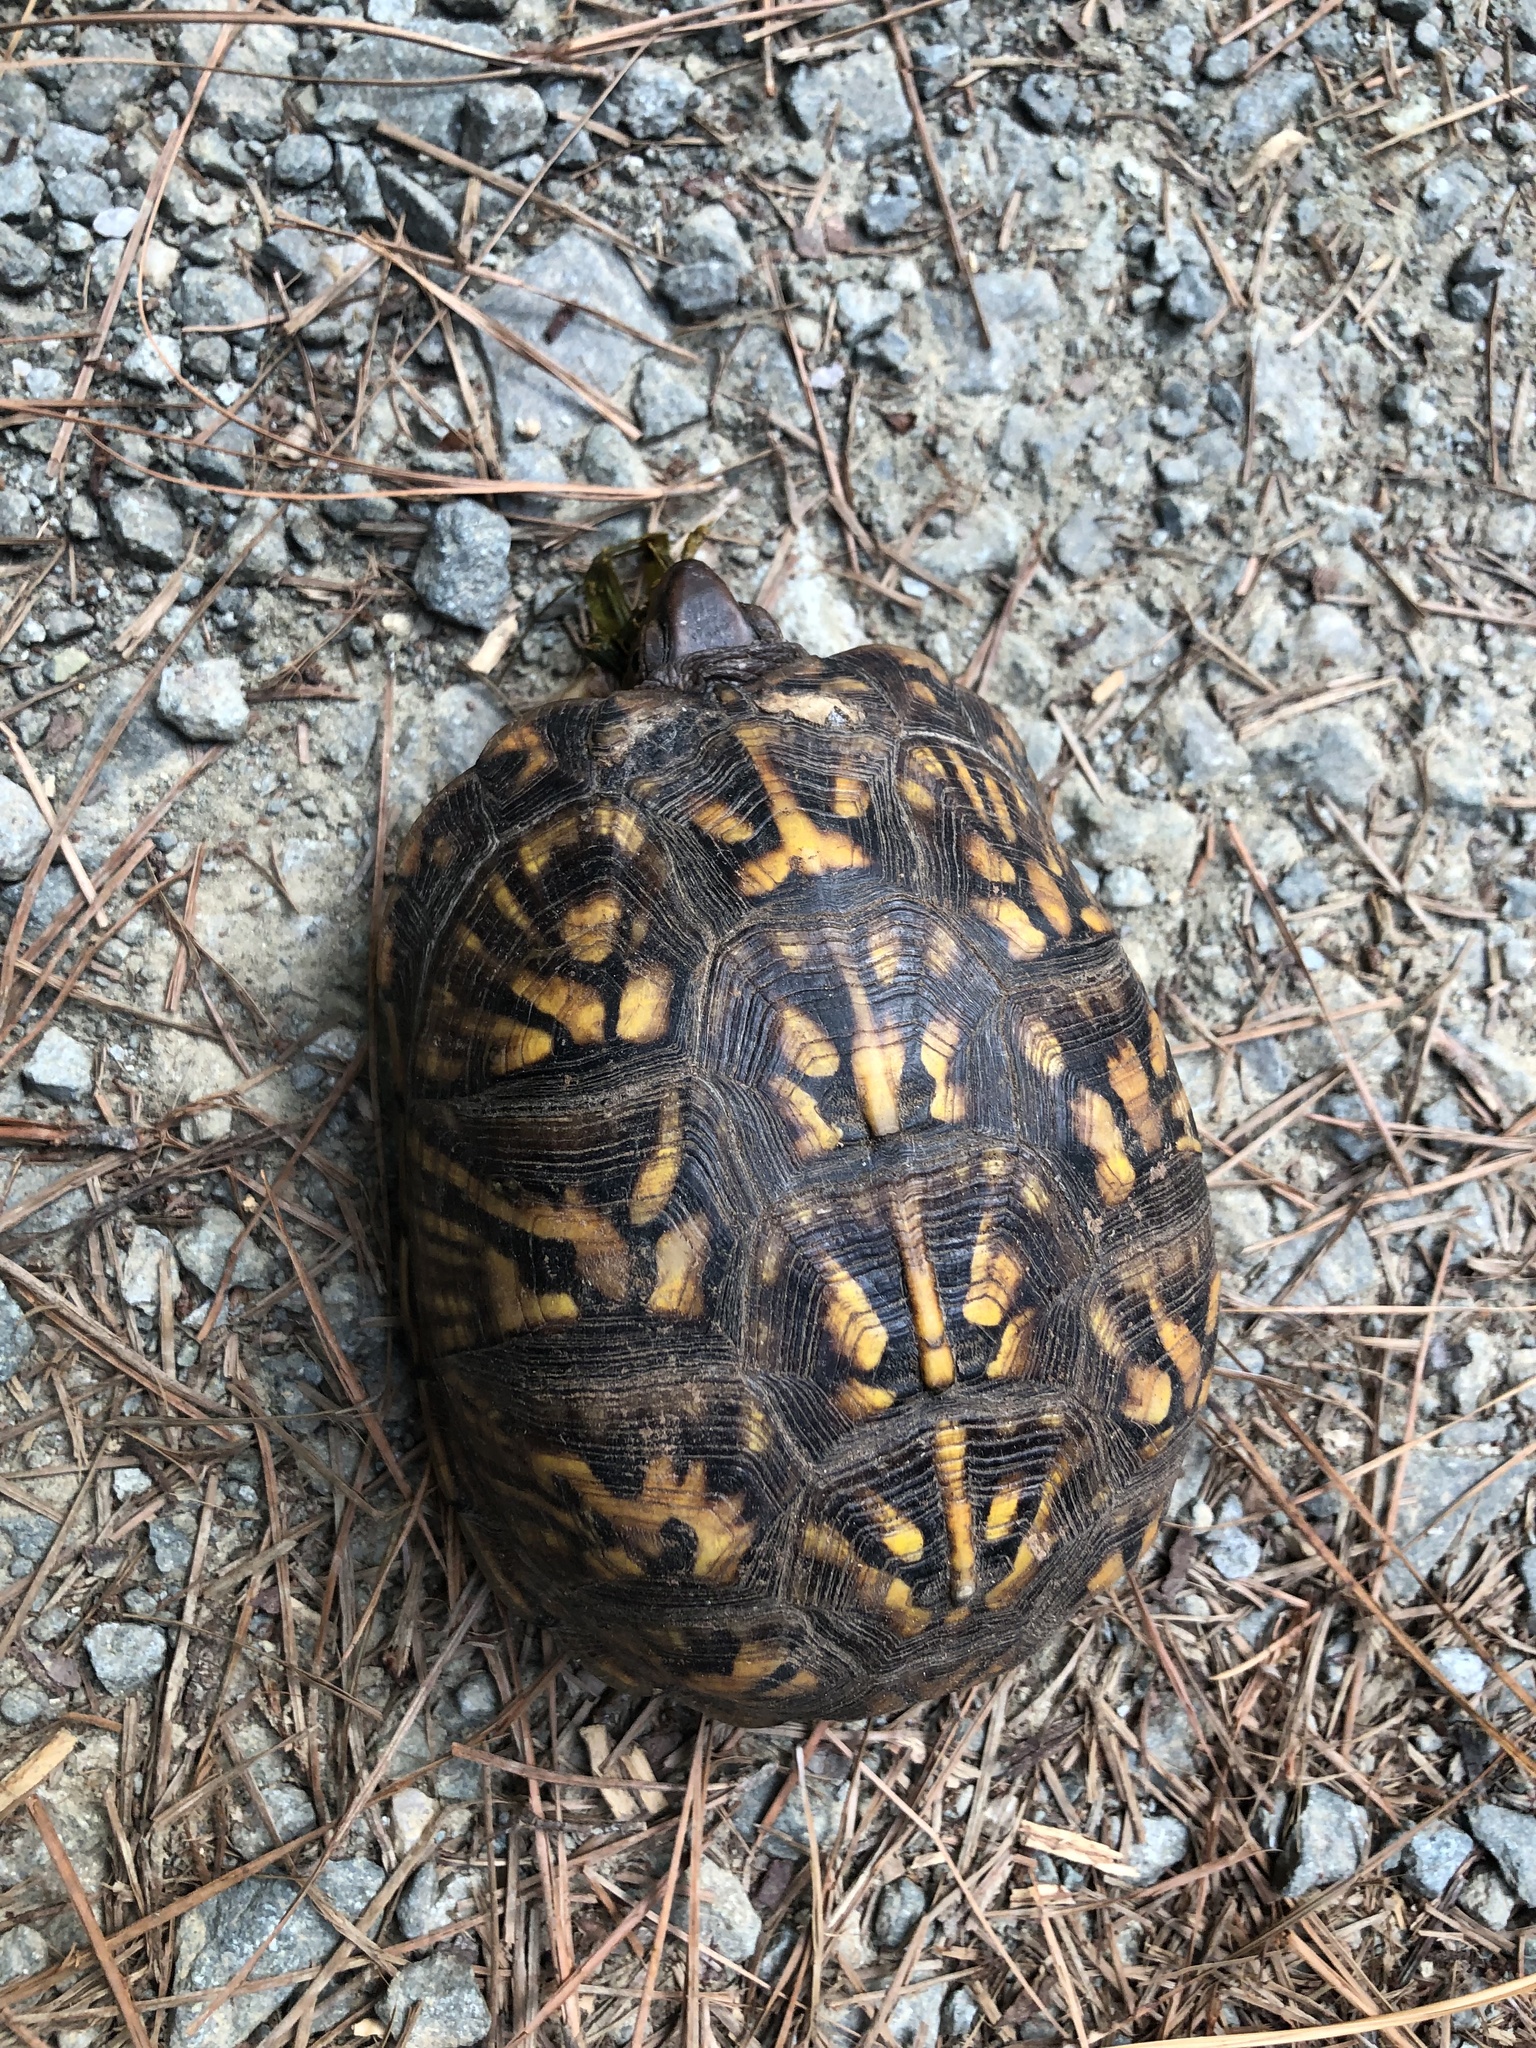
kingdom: Animalia
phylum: Chordata
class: Testudines
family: Emydidae
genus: Terrapene
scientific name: Terrapene carolina
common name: Common box turtle
